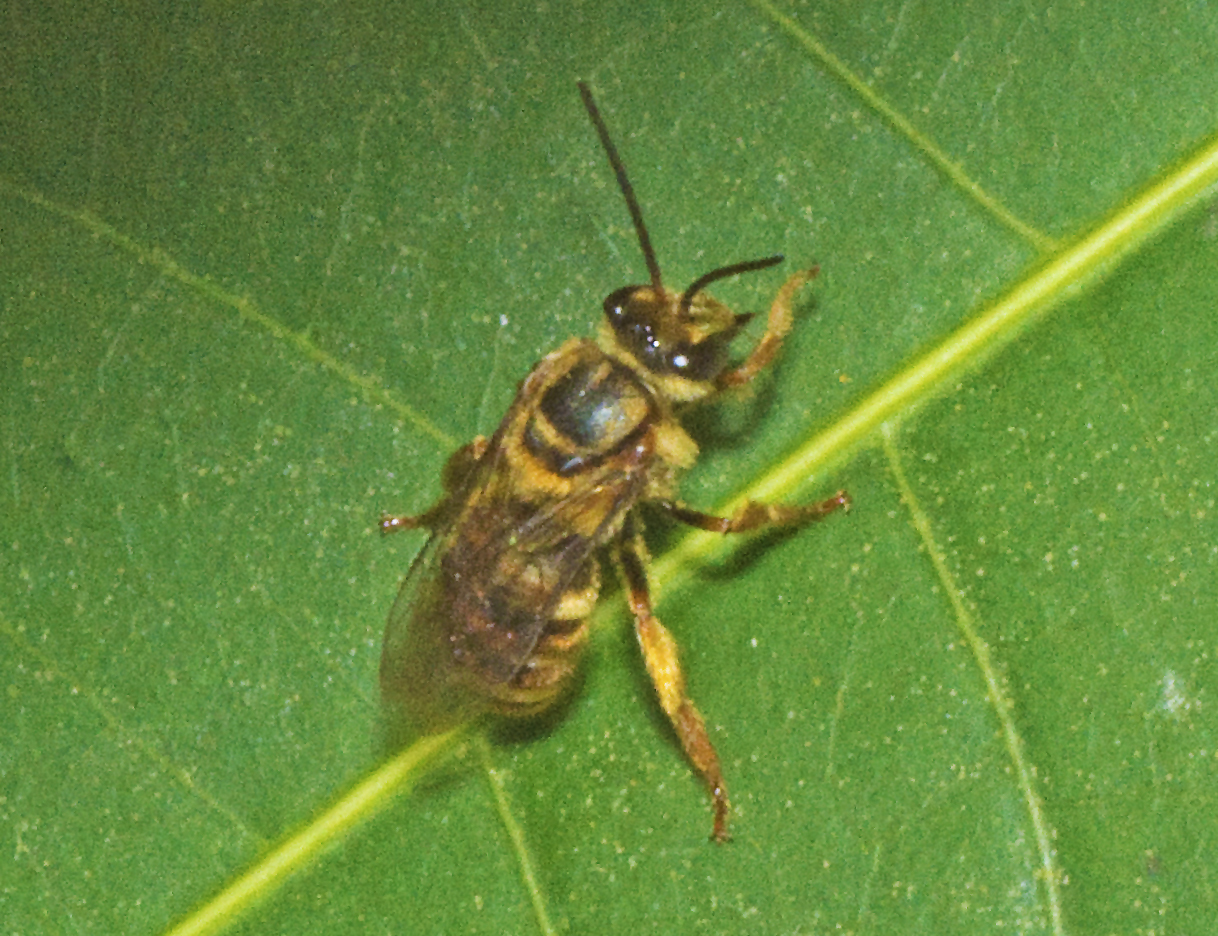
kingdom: Animalia
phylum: Arthropoda
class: Insecta
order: Hymenoptera
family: Halictidae
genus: Mellitidia
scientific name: Mellitidia tomentifera
